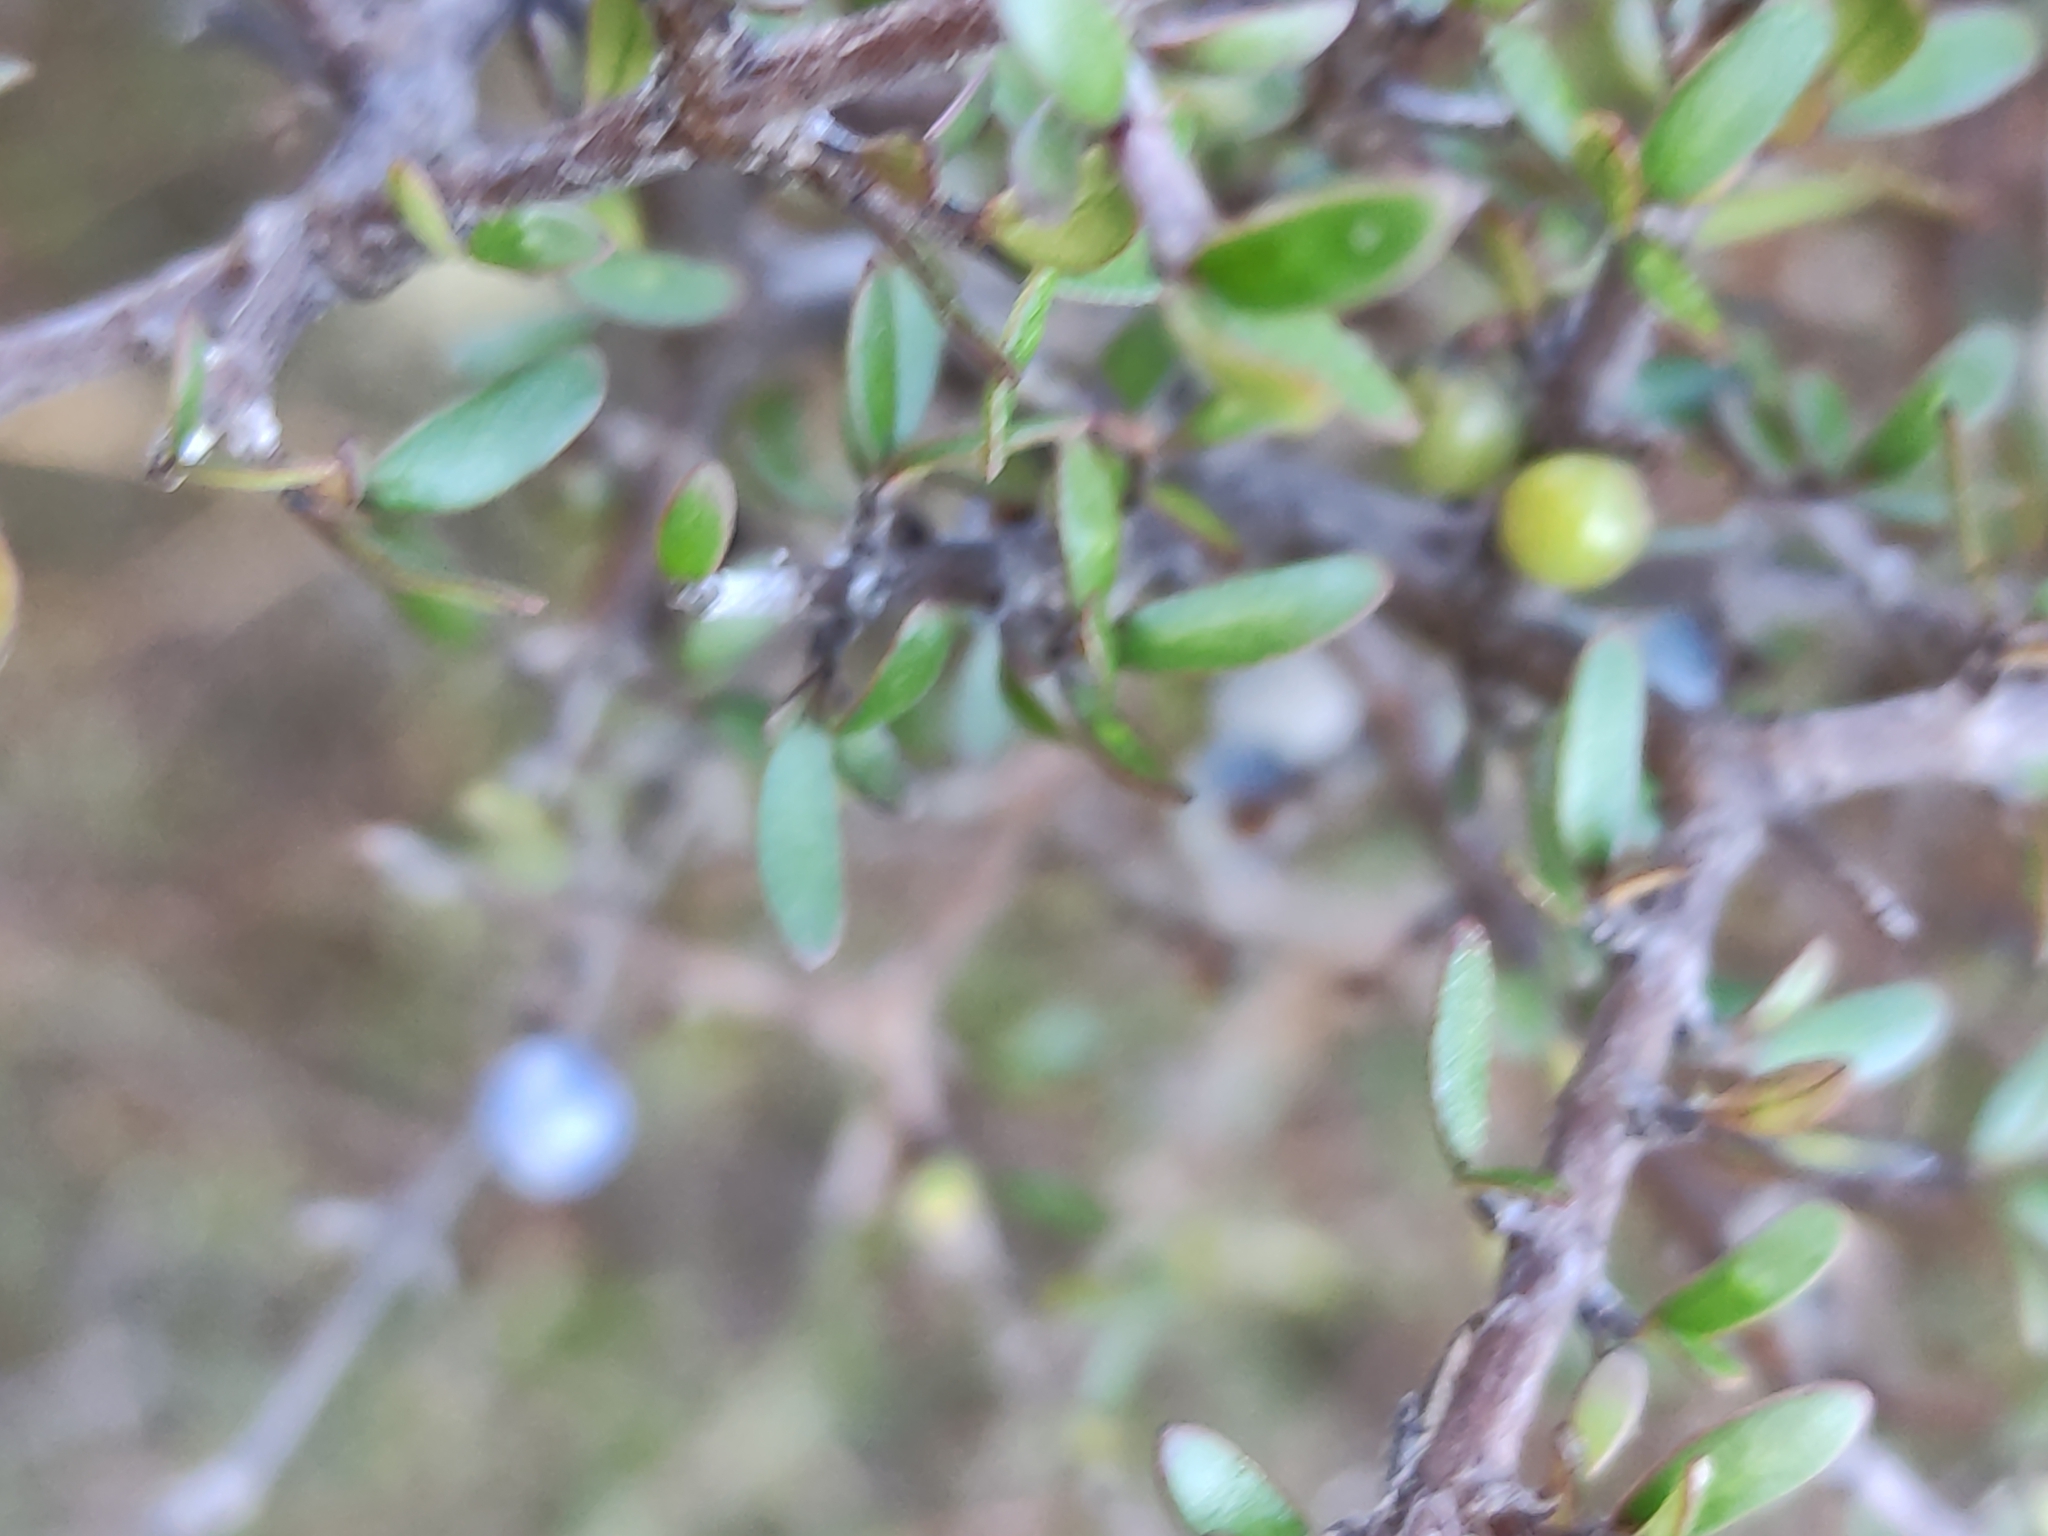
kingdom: Plantae
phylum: Tracheophyta
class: Magnoliopsida
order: Gentianales
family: Rubiaceae
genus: Coprosma
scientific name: Coprosma propinqua
